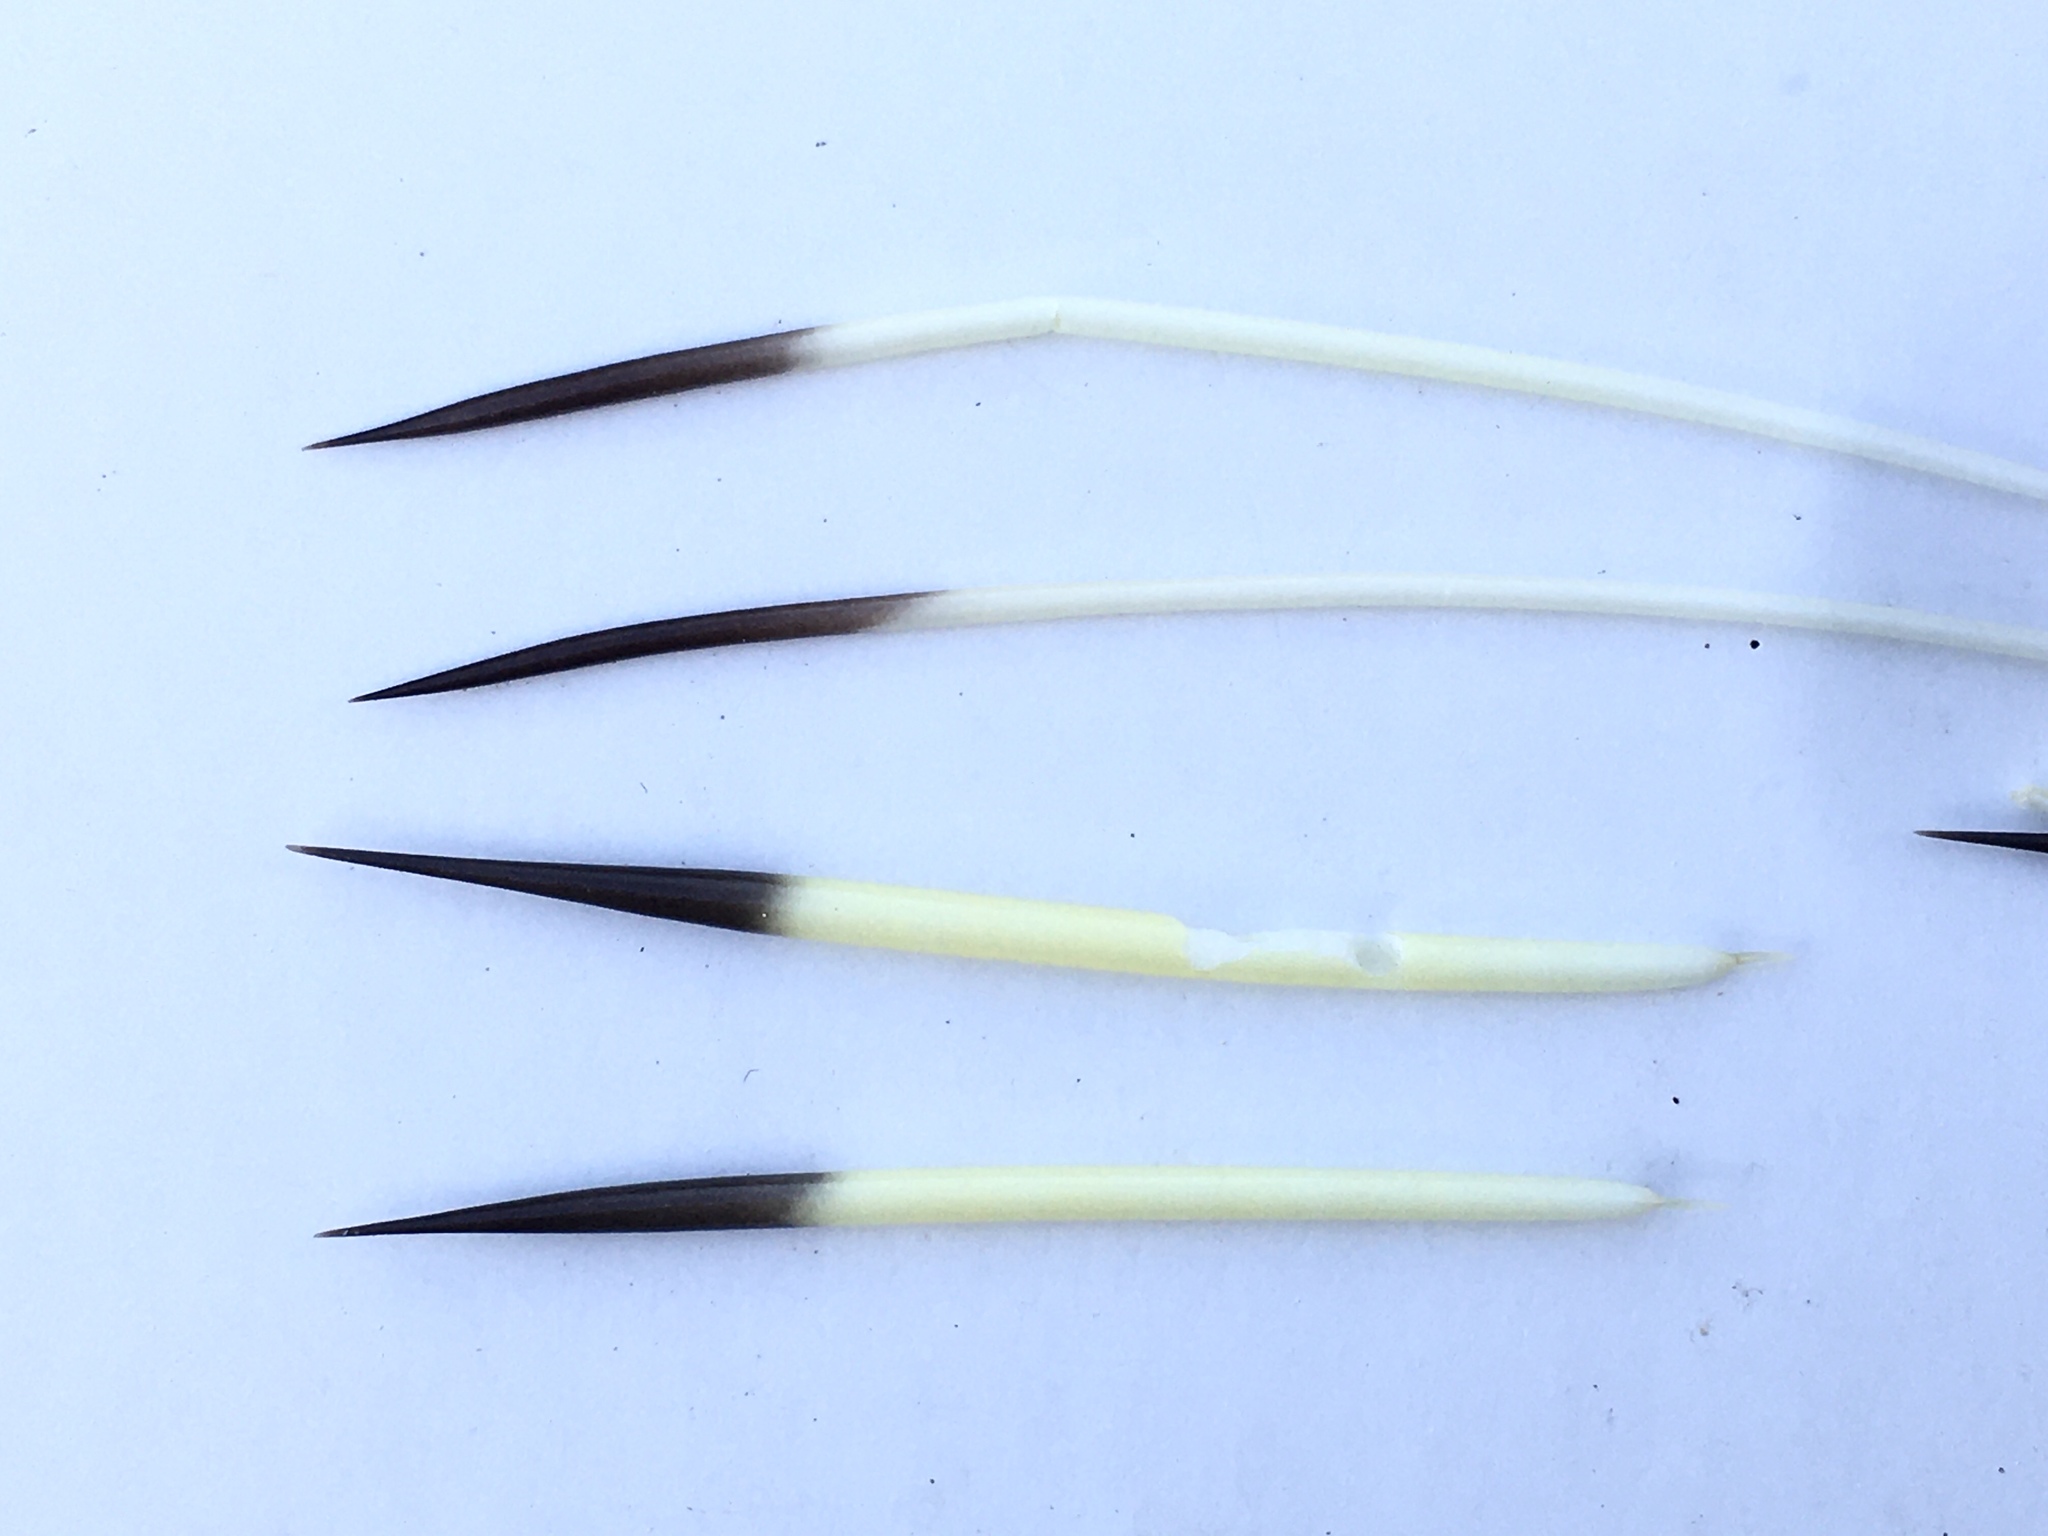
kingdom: Animalia
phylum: Chordata
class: Mammalia
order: Rodentia
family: Erethizontidae
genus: Erethizon
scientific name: Erethizon dorsatus
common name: North american porcupine
